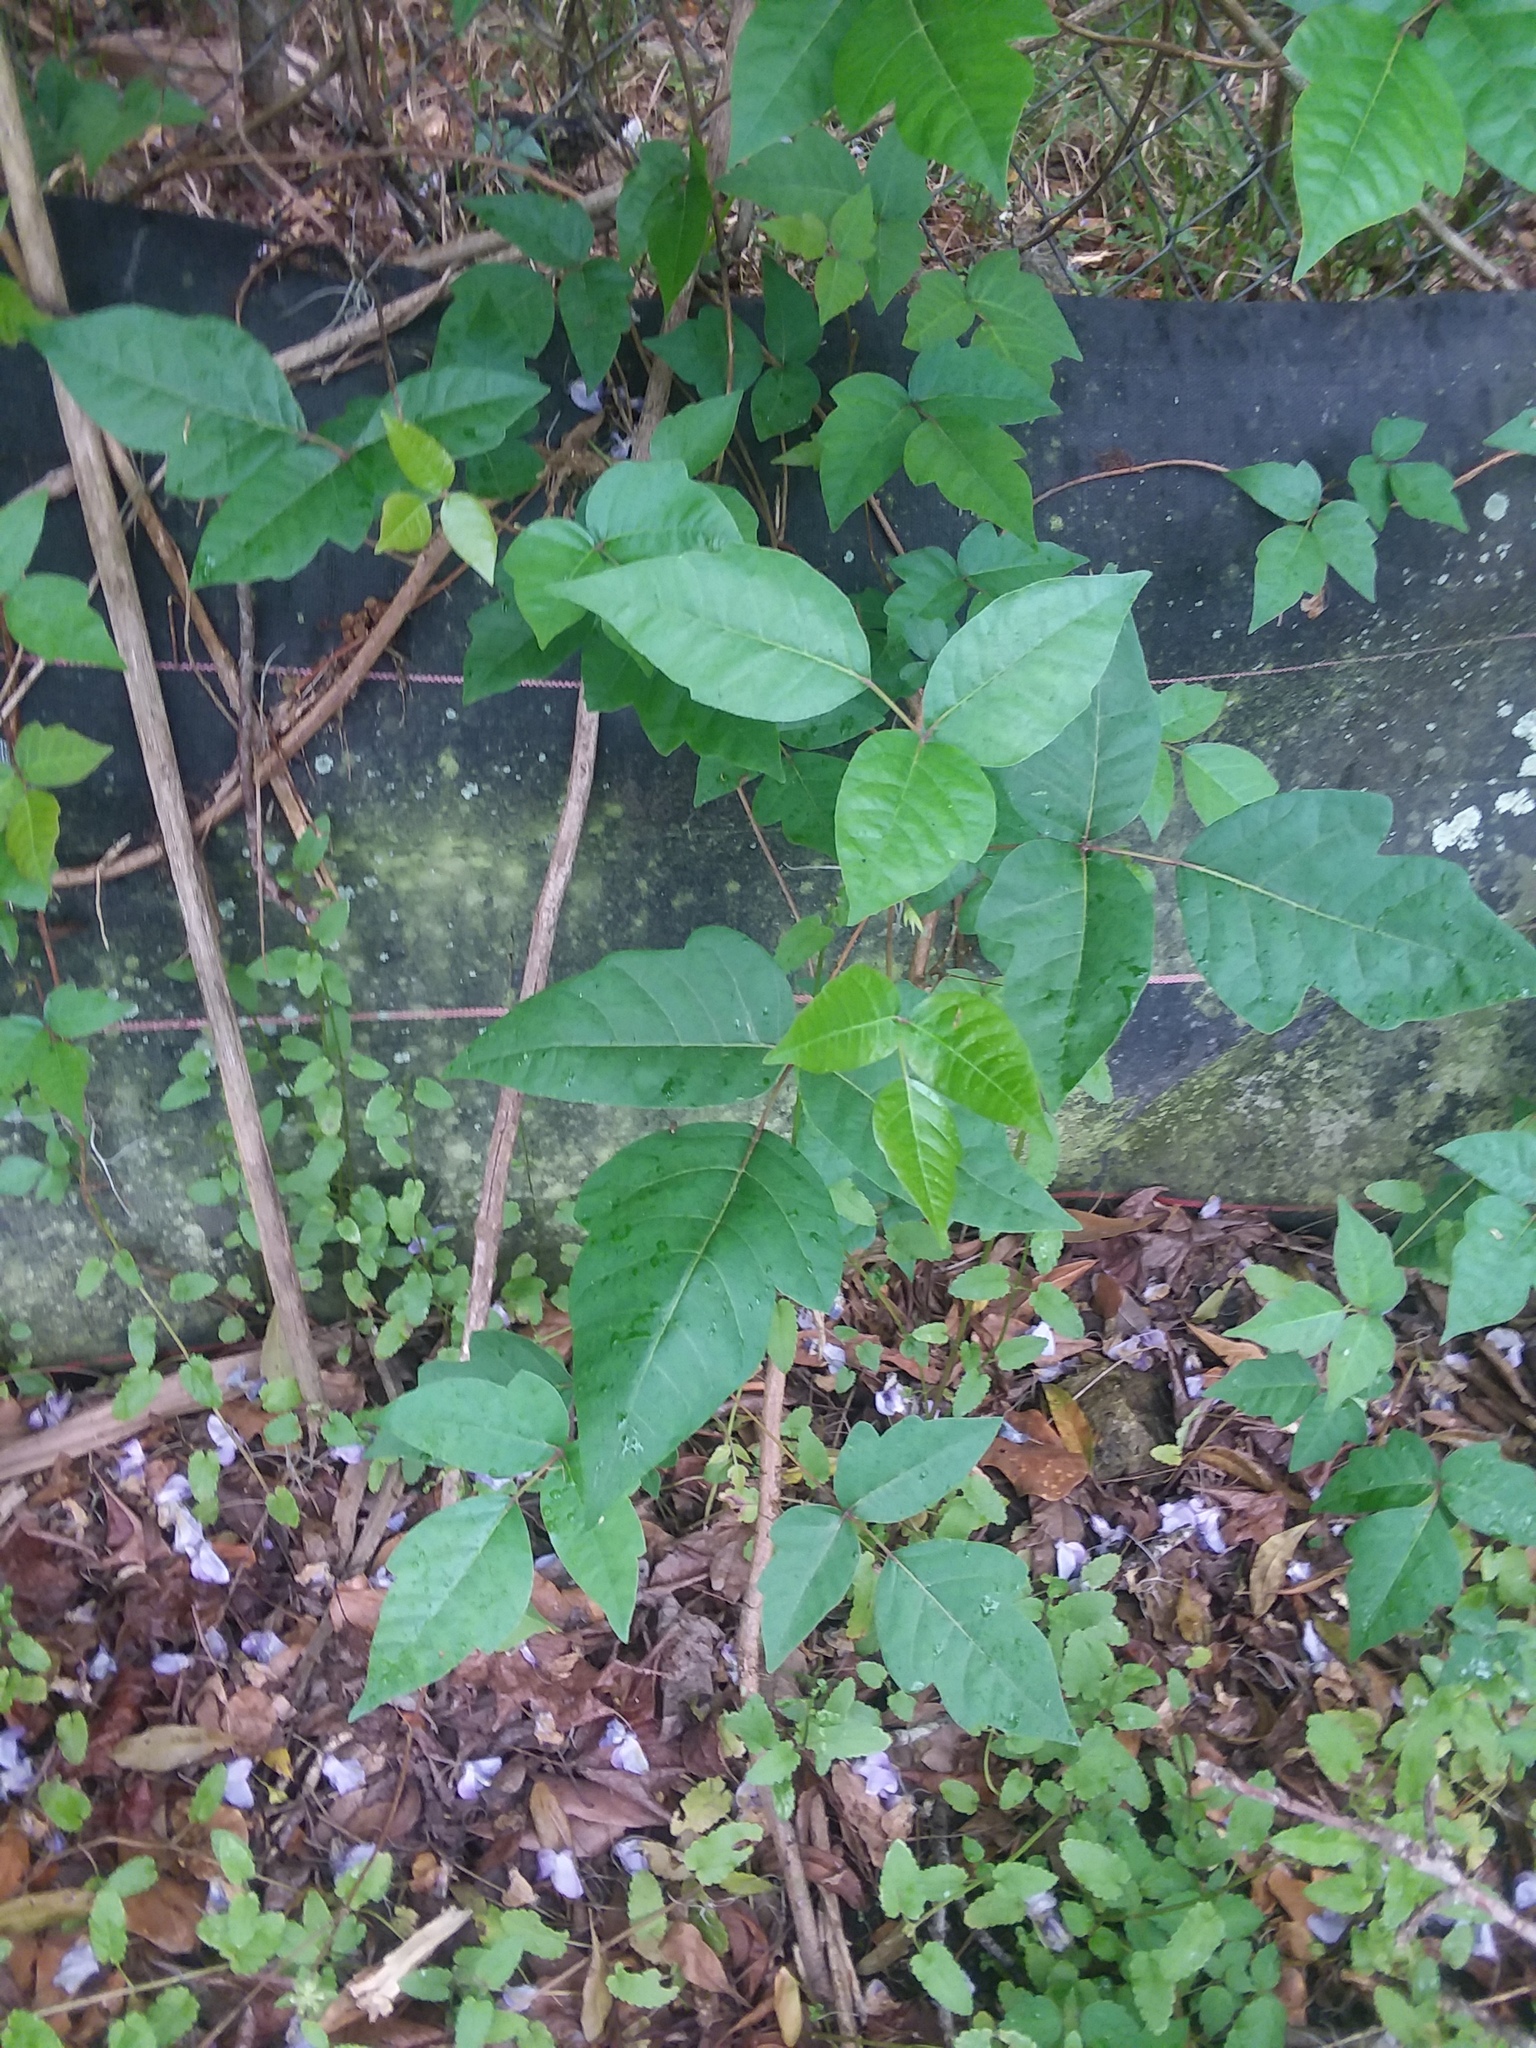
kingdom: Plantae
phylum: Tracheophyta
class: Magnoliopsida
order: Sapindales
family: Anacardiaceae
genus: Toxicodendron
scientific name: Toxicodendron radicans
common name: Poison ivy
